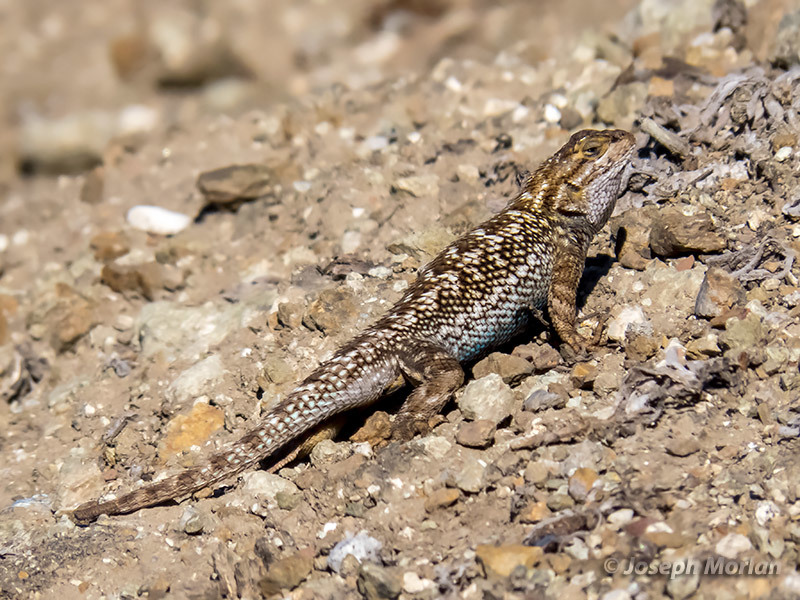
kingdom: Animalia
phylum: Chordata
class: Squamata
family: Phrynosomatidae
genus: Sceloporus
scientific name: Sceloporus occidentalis
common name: Western fence lizard
